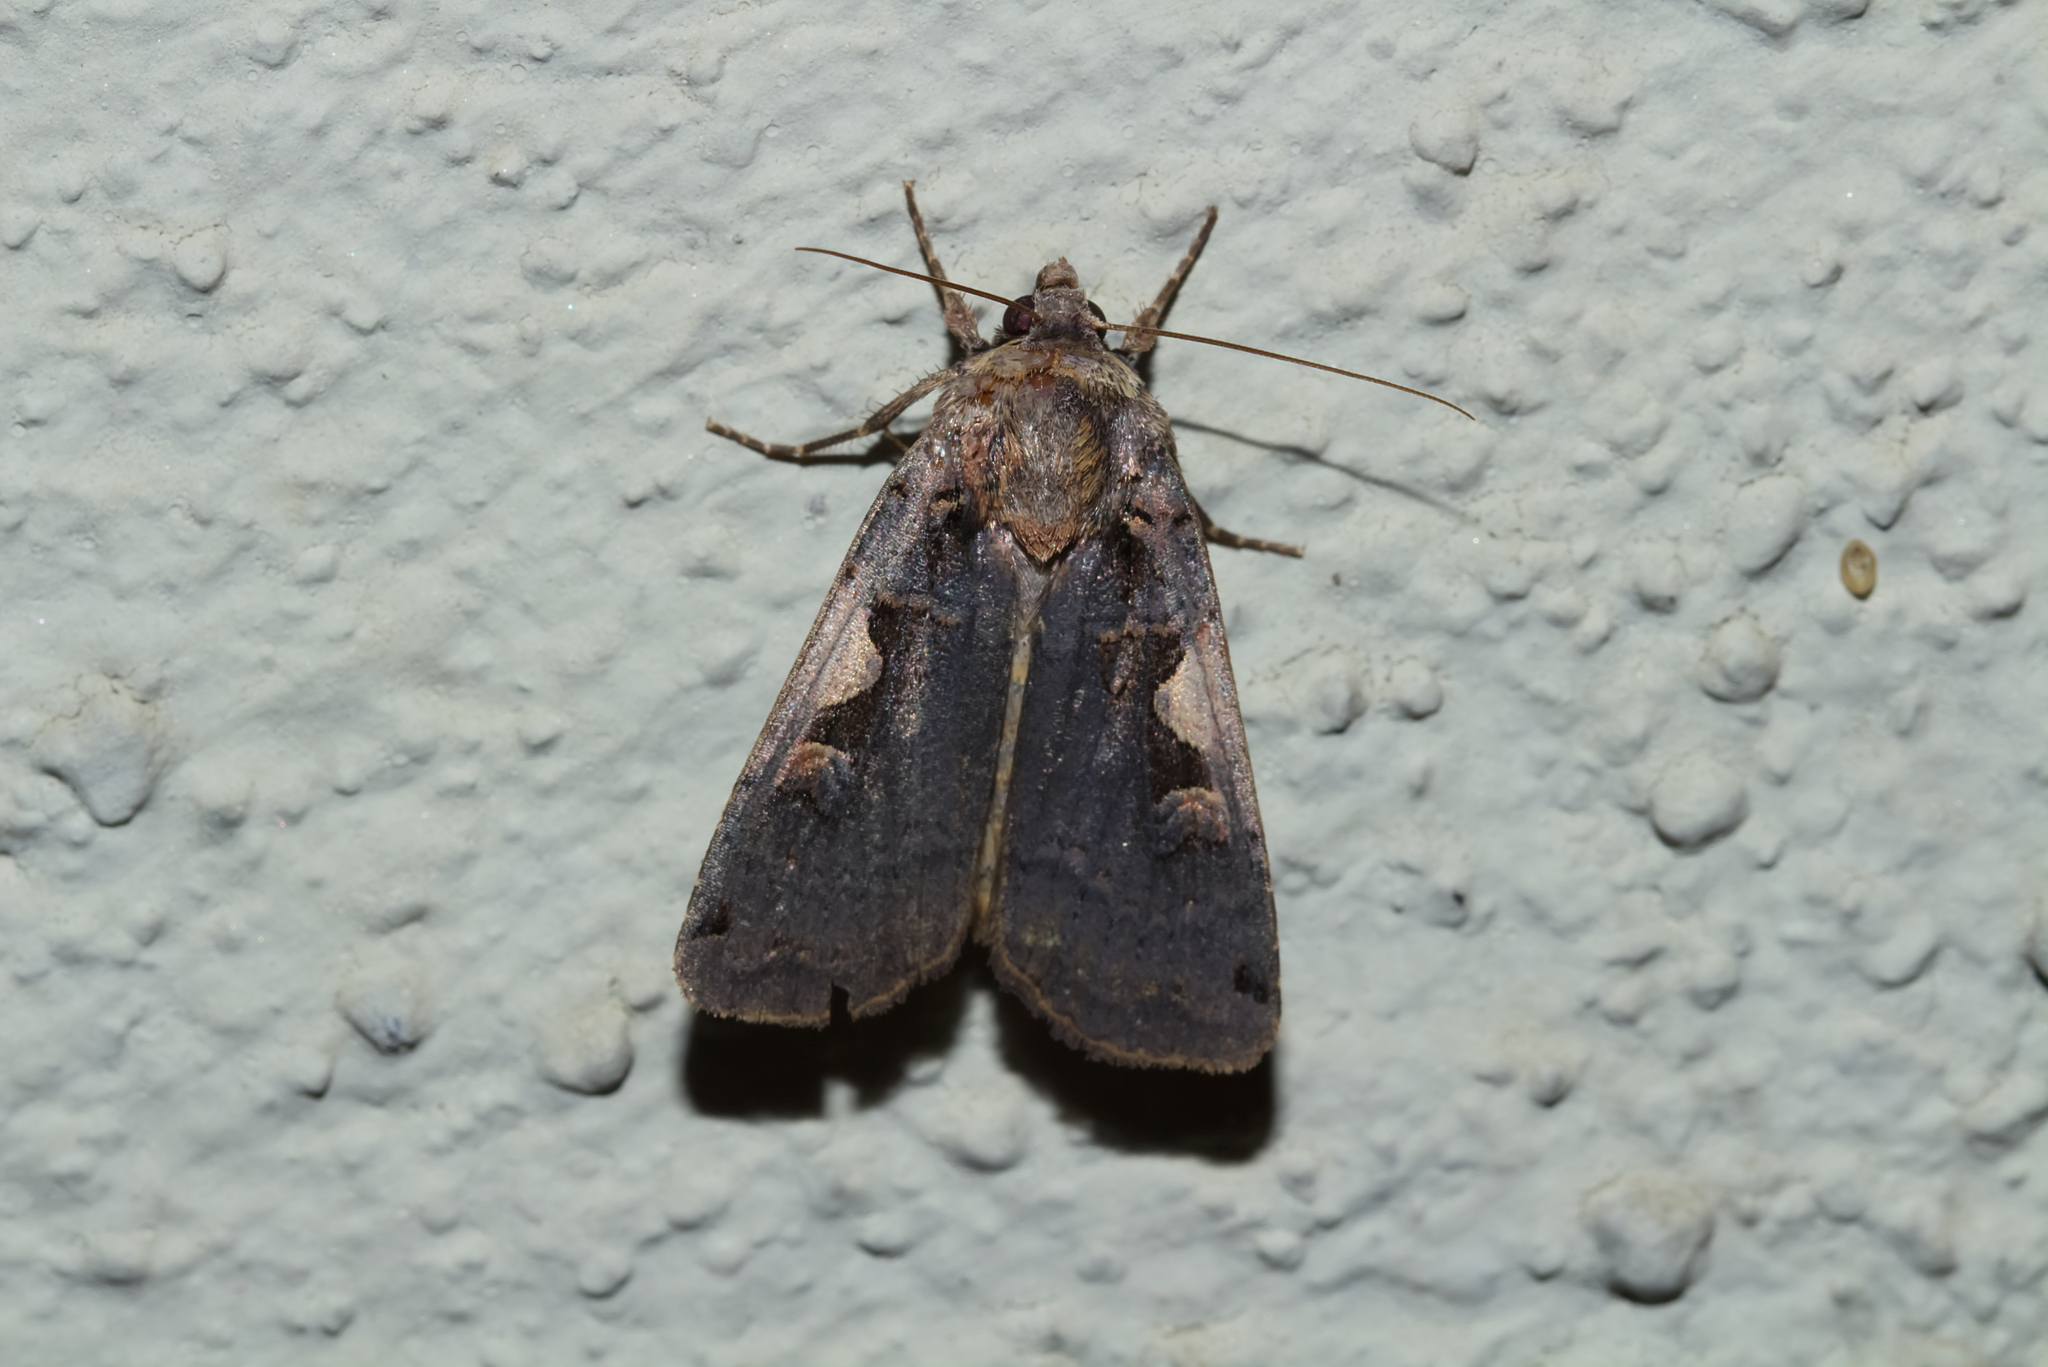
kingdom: Animalia
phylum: Arthropoda
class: Insecta
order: Lepidoptera
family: Noctuidae
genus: Xestia
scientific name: Xestia c-nigrum
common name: Setaceous hebrew character
